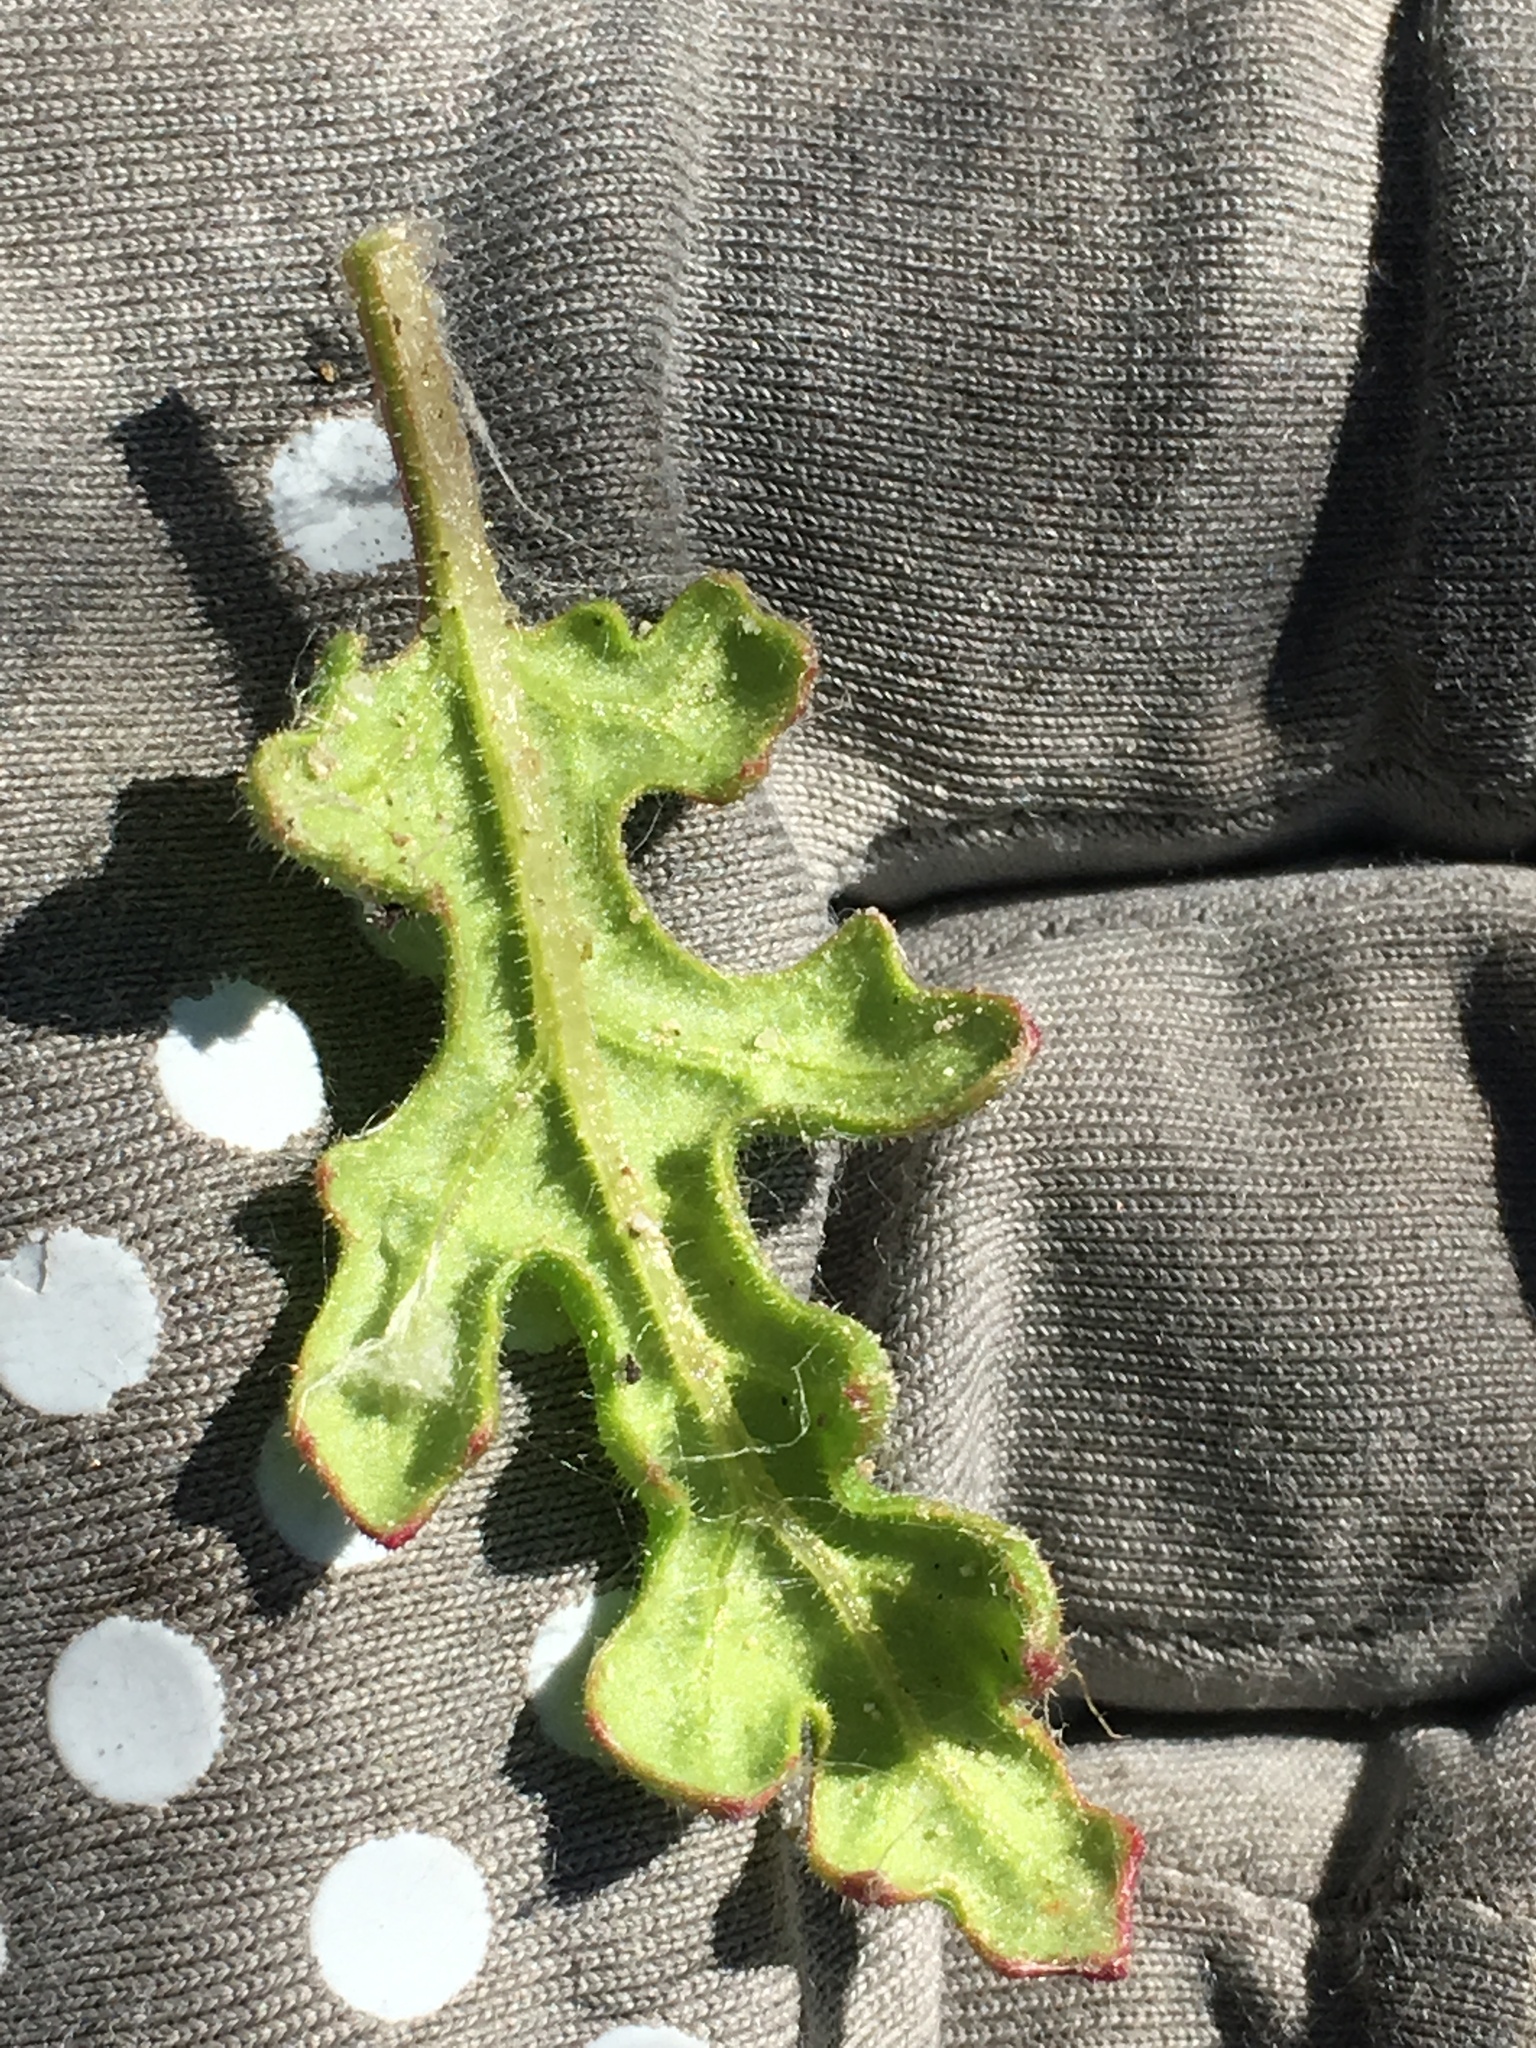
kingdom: Plantae
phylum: Tracheophyta
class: Magnoliopsida
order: Caryophyllales
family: Amaranthaceae
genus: Dysphania
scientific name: Dysphania botrys
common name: Feather-geranium
